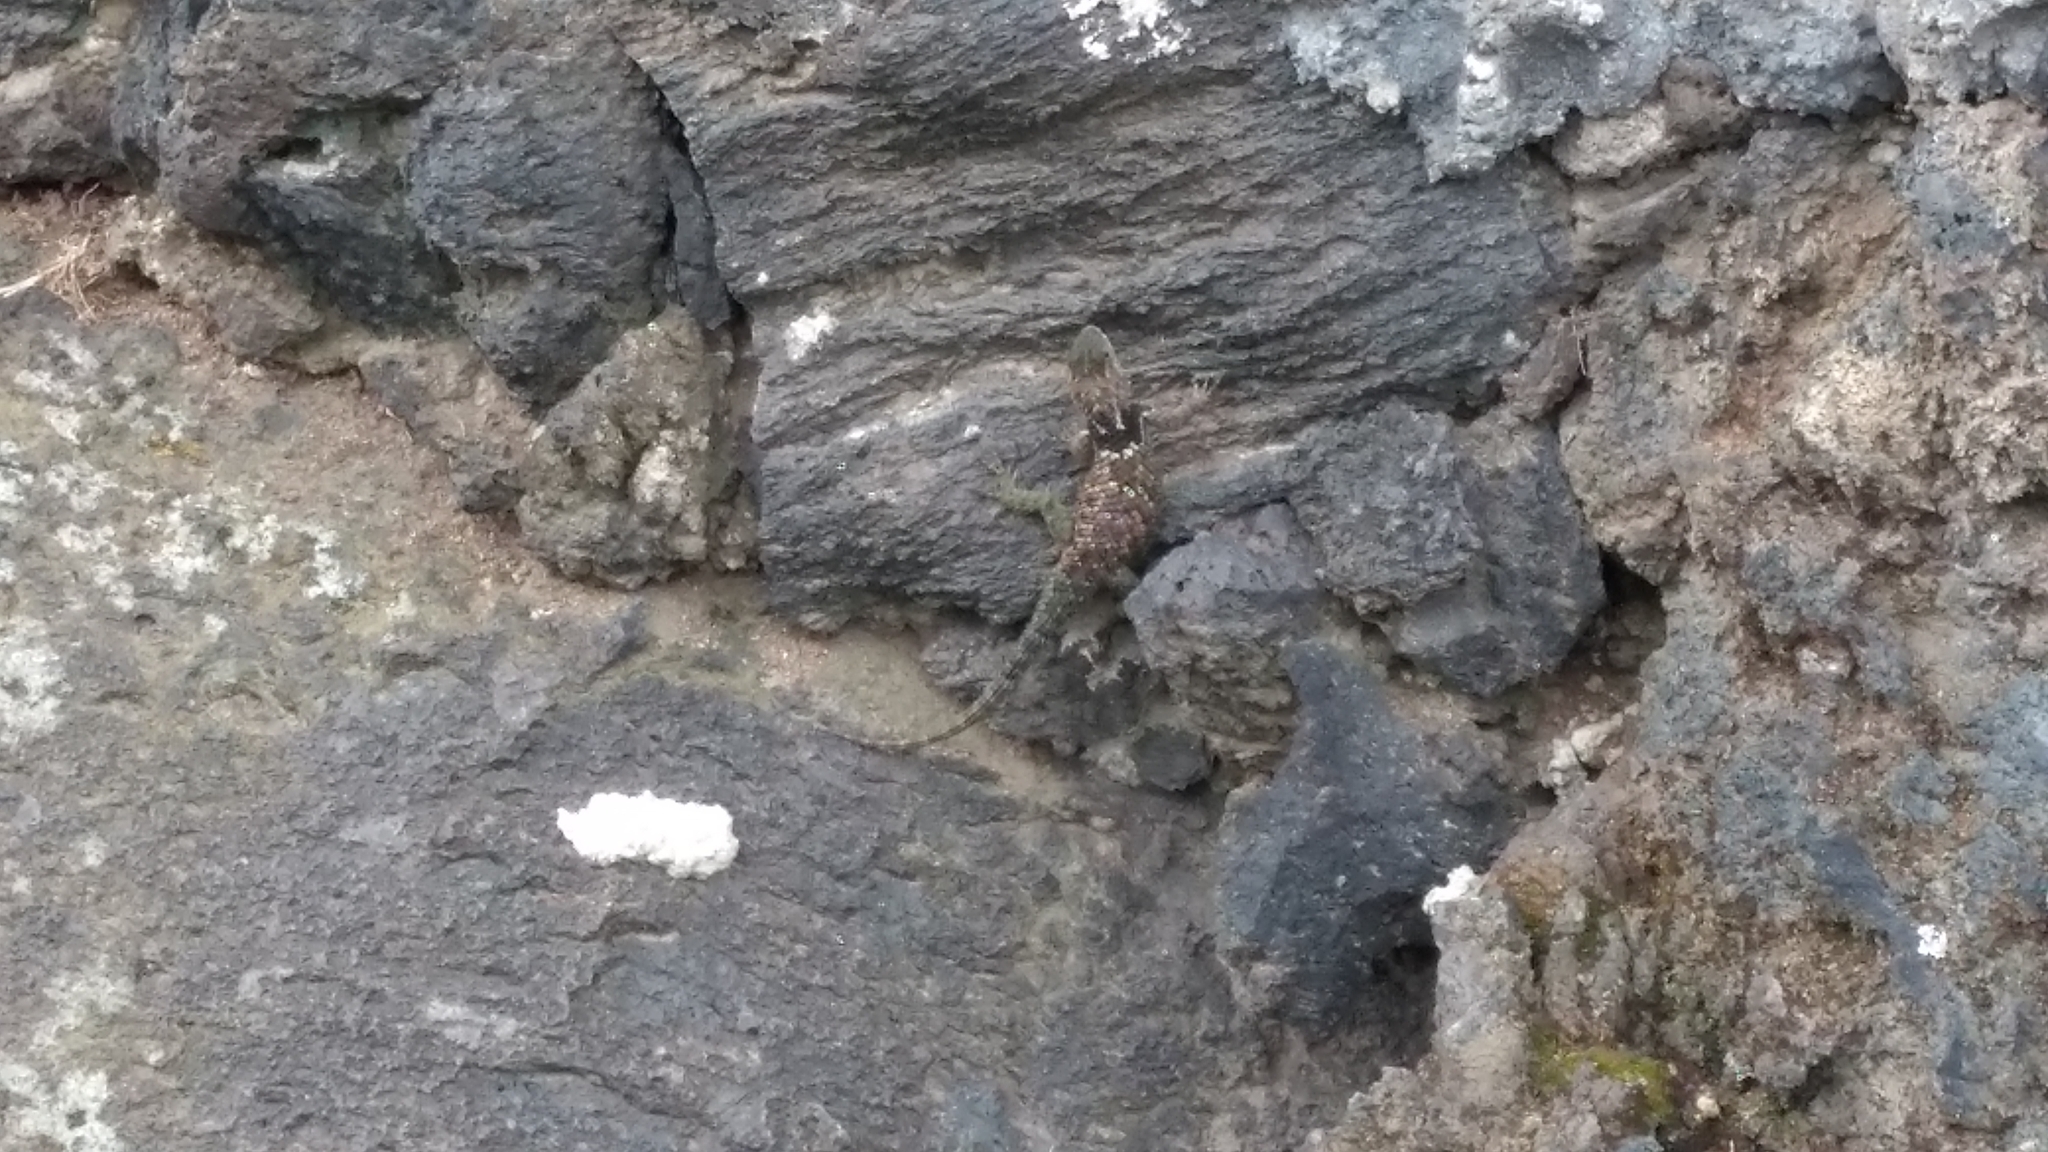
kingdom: Animalia
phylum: Chordata
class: Squamata
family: Phrynosomatidae
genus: Sceloporus
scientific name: Sceloporus torquatus
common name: Central plateau torquate lizard [melanogaster]
